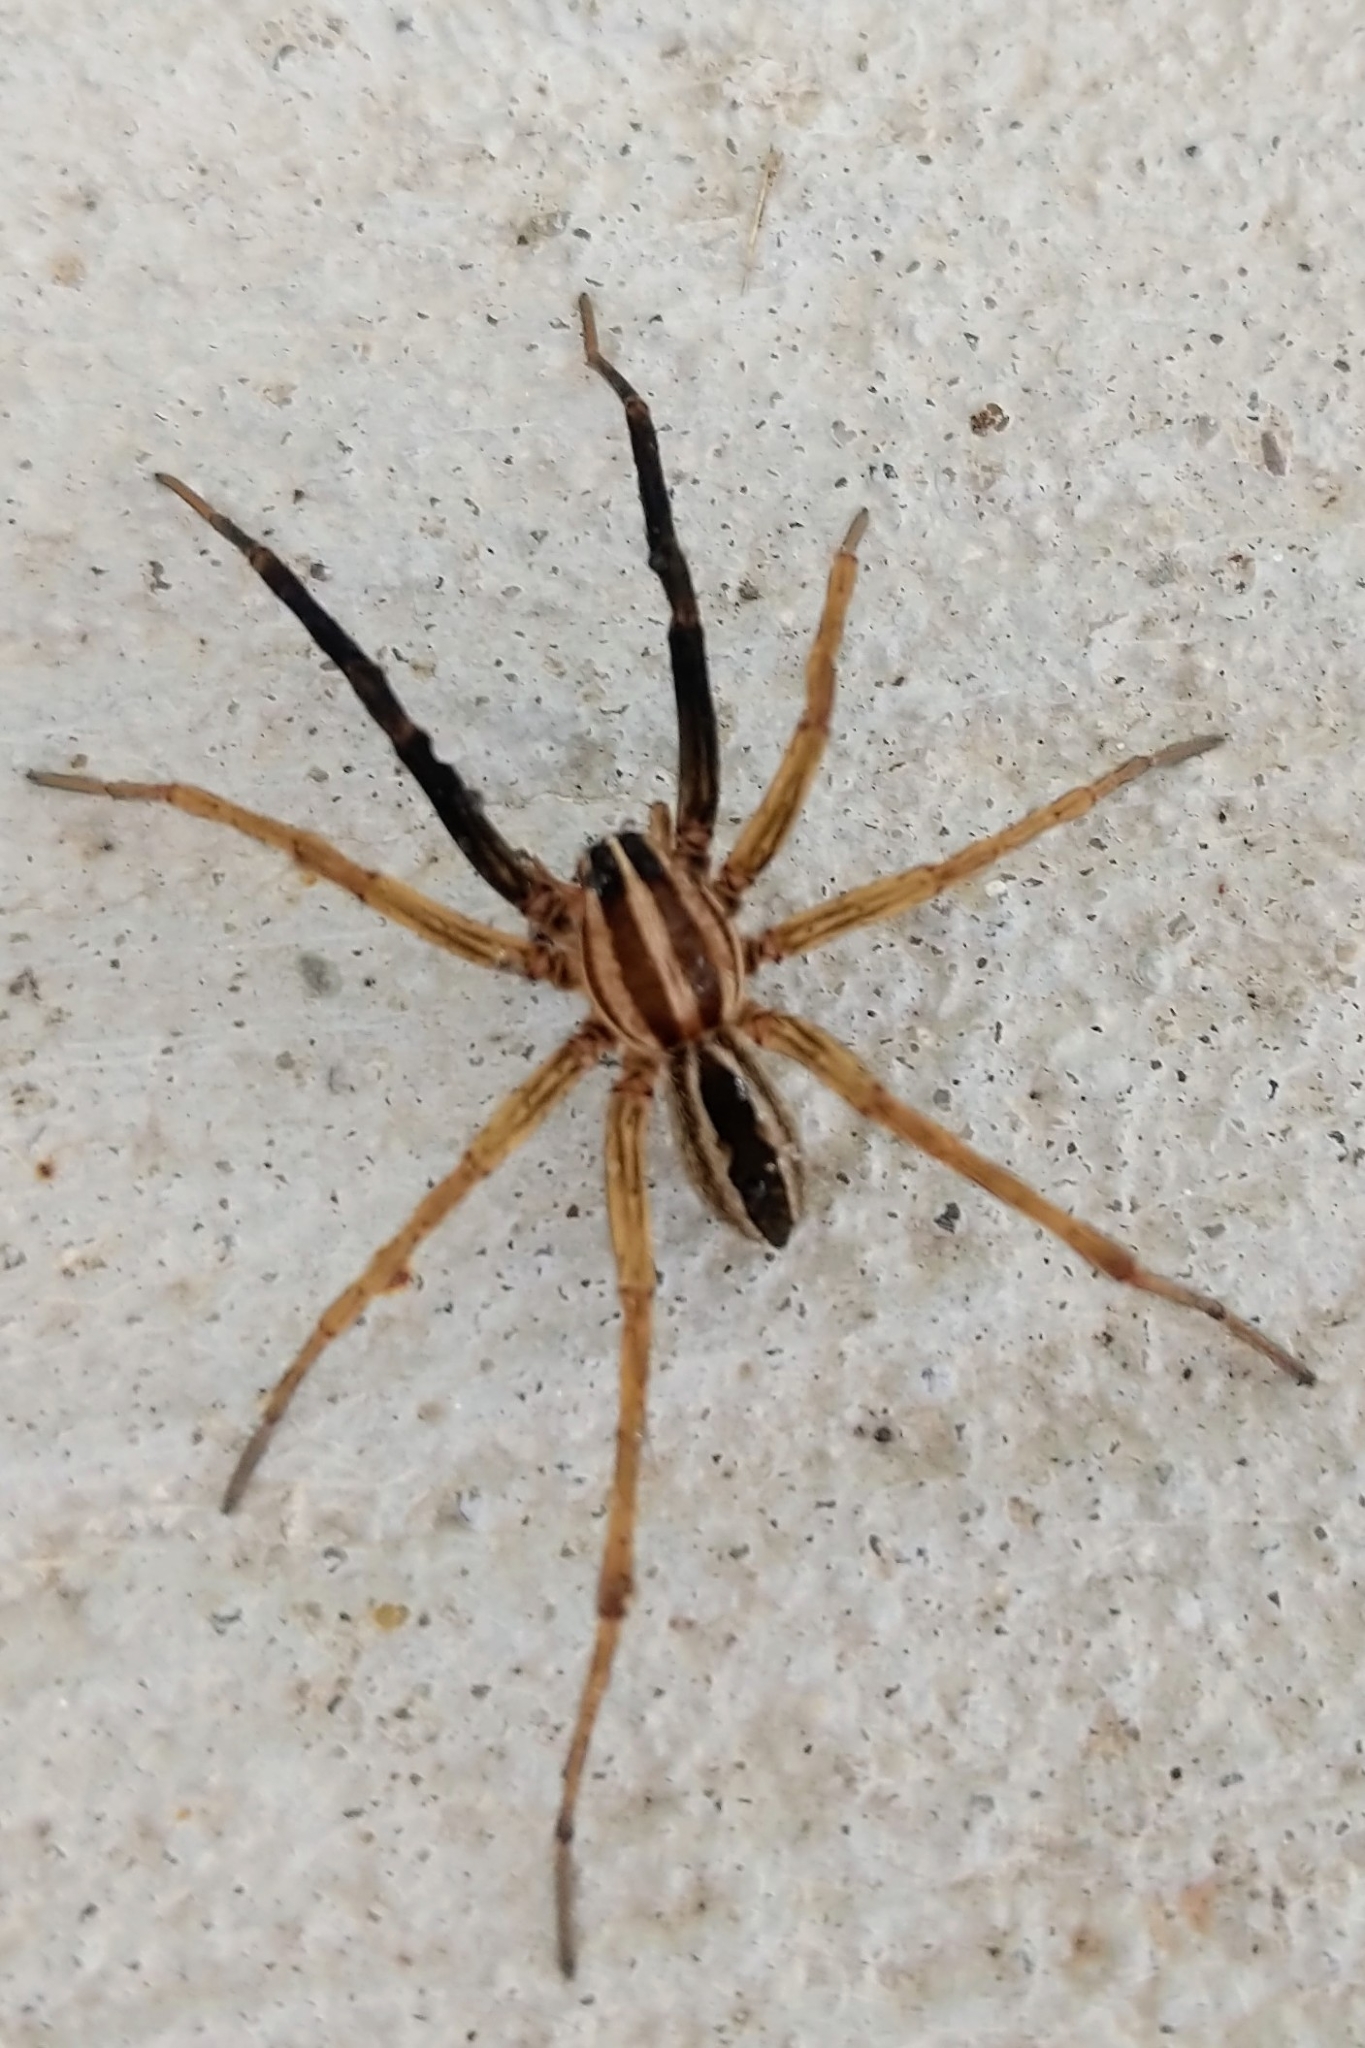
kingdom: Animalia
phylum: Arthropoda
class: Arachnida
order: Araneae
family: Lycosidae
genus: Rabidosa
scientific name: Rabidosa rabida
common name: Rabid wolf spider
